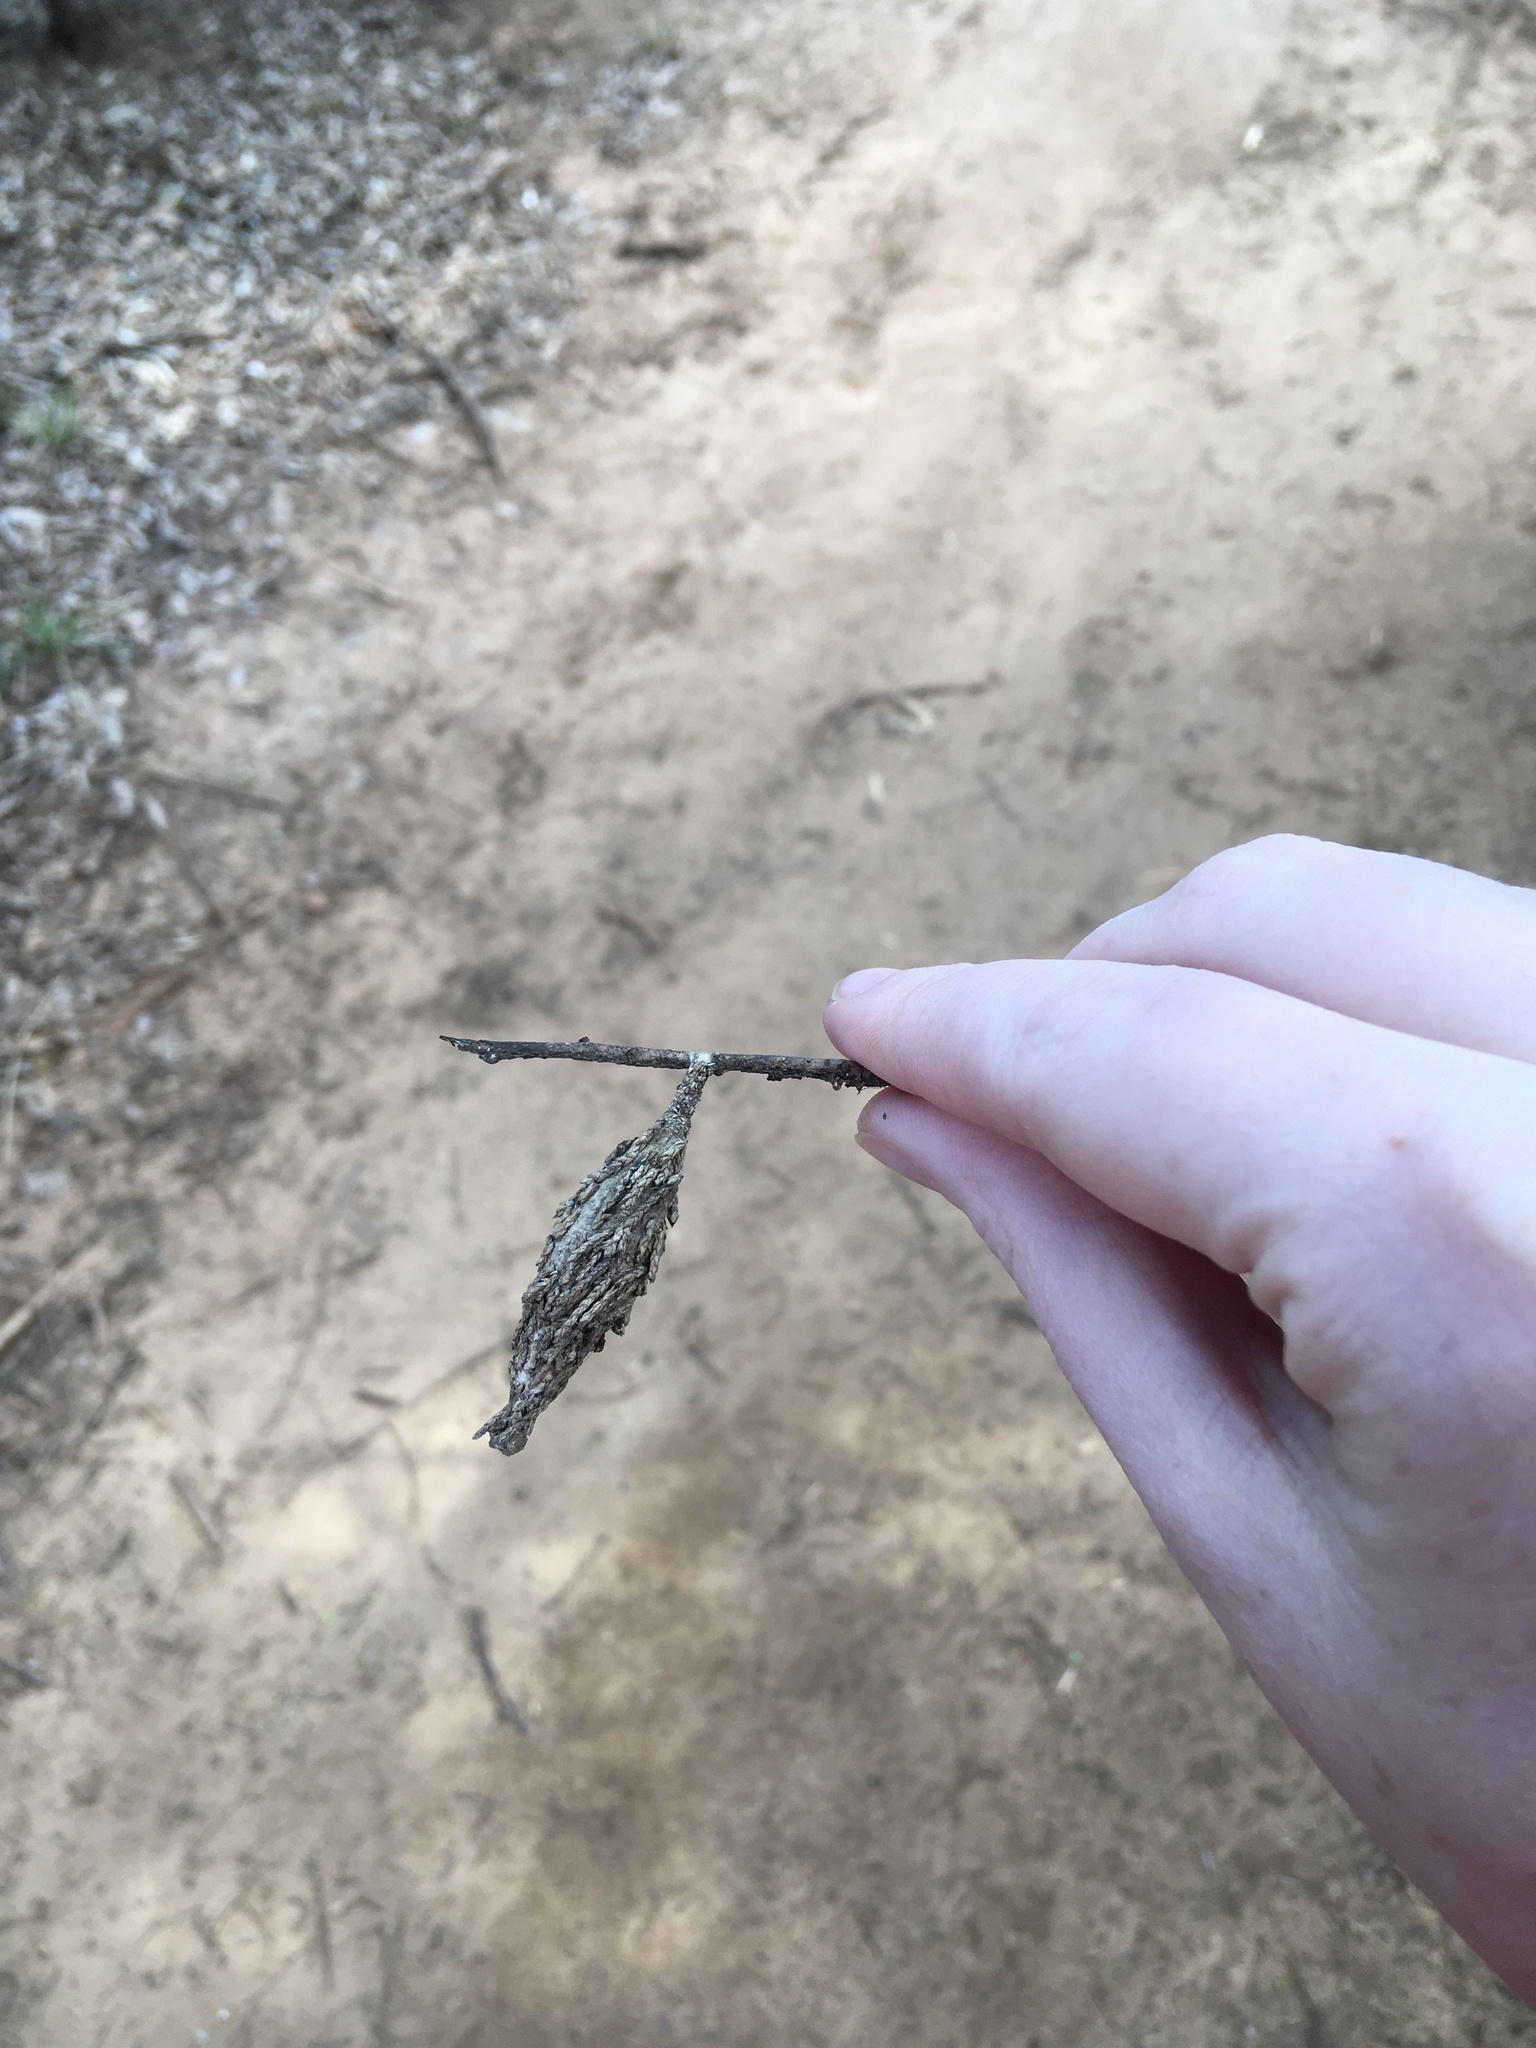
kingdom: Animalia
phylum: Arthropoda
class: Insecta
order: Lepidoptera
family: Psychidae
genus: Thyridopteryx
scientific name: Thyridopteryx ephemeraeformis
